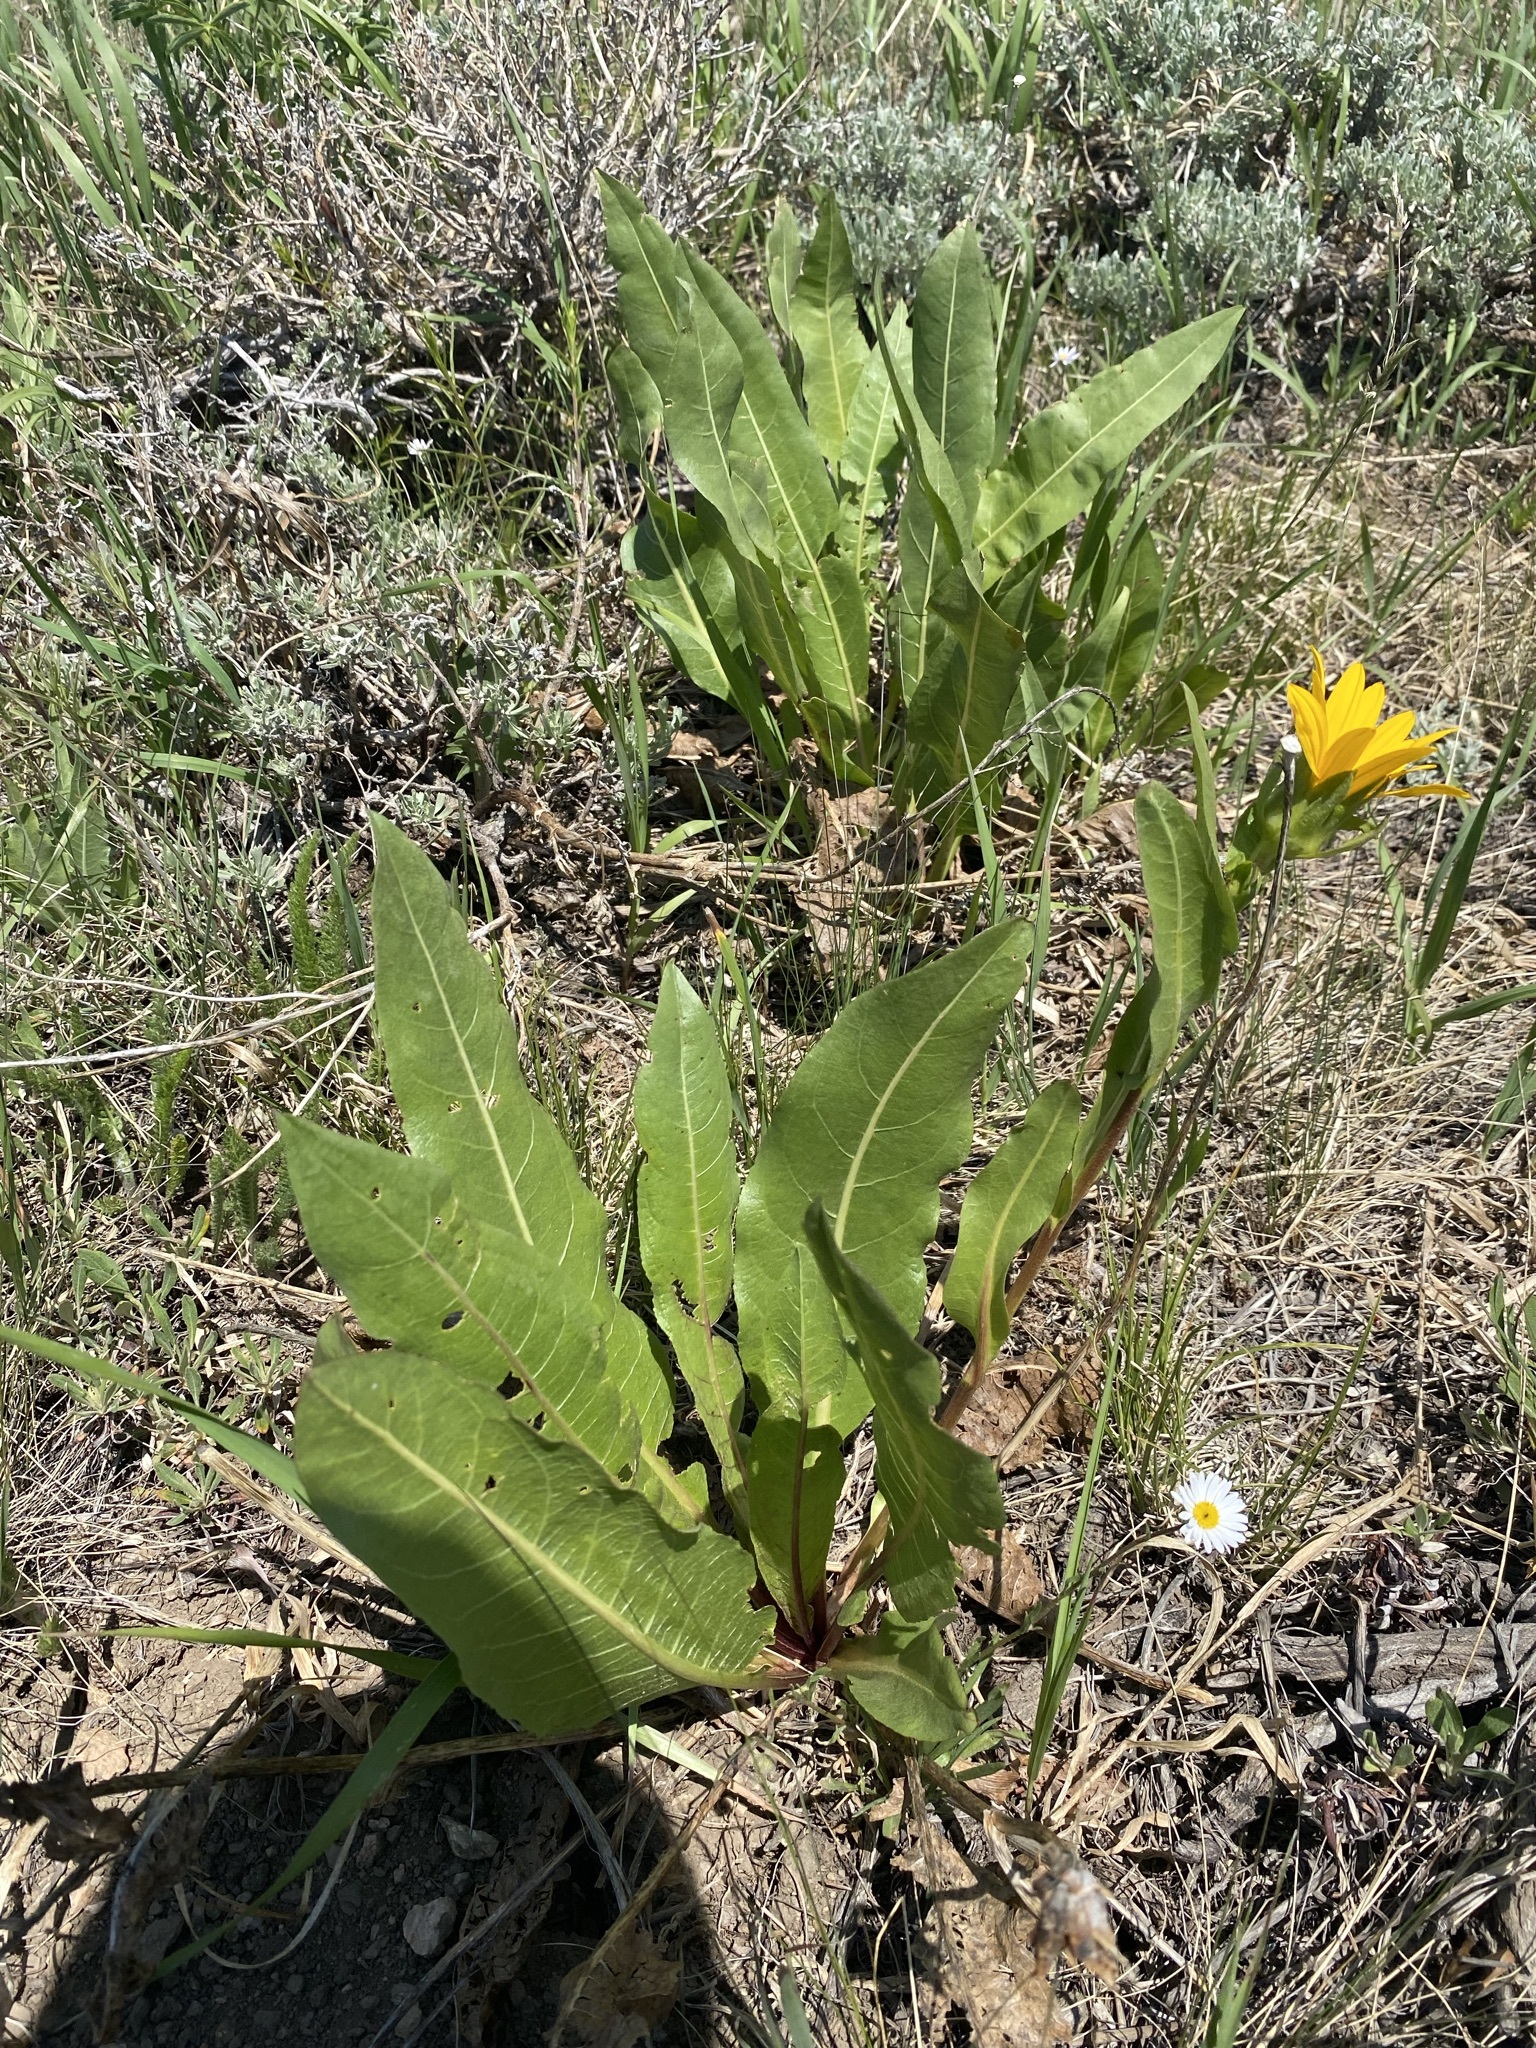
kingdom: Plantae
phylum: Tracheophyta
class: Magnoliopsida
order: Asterales
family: Asteraceae
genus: Wyethia
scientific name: Wyethia amplexicaulis
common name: Northern mule's-ears
